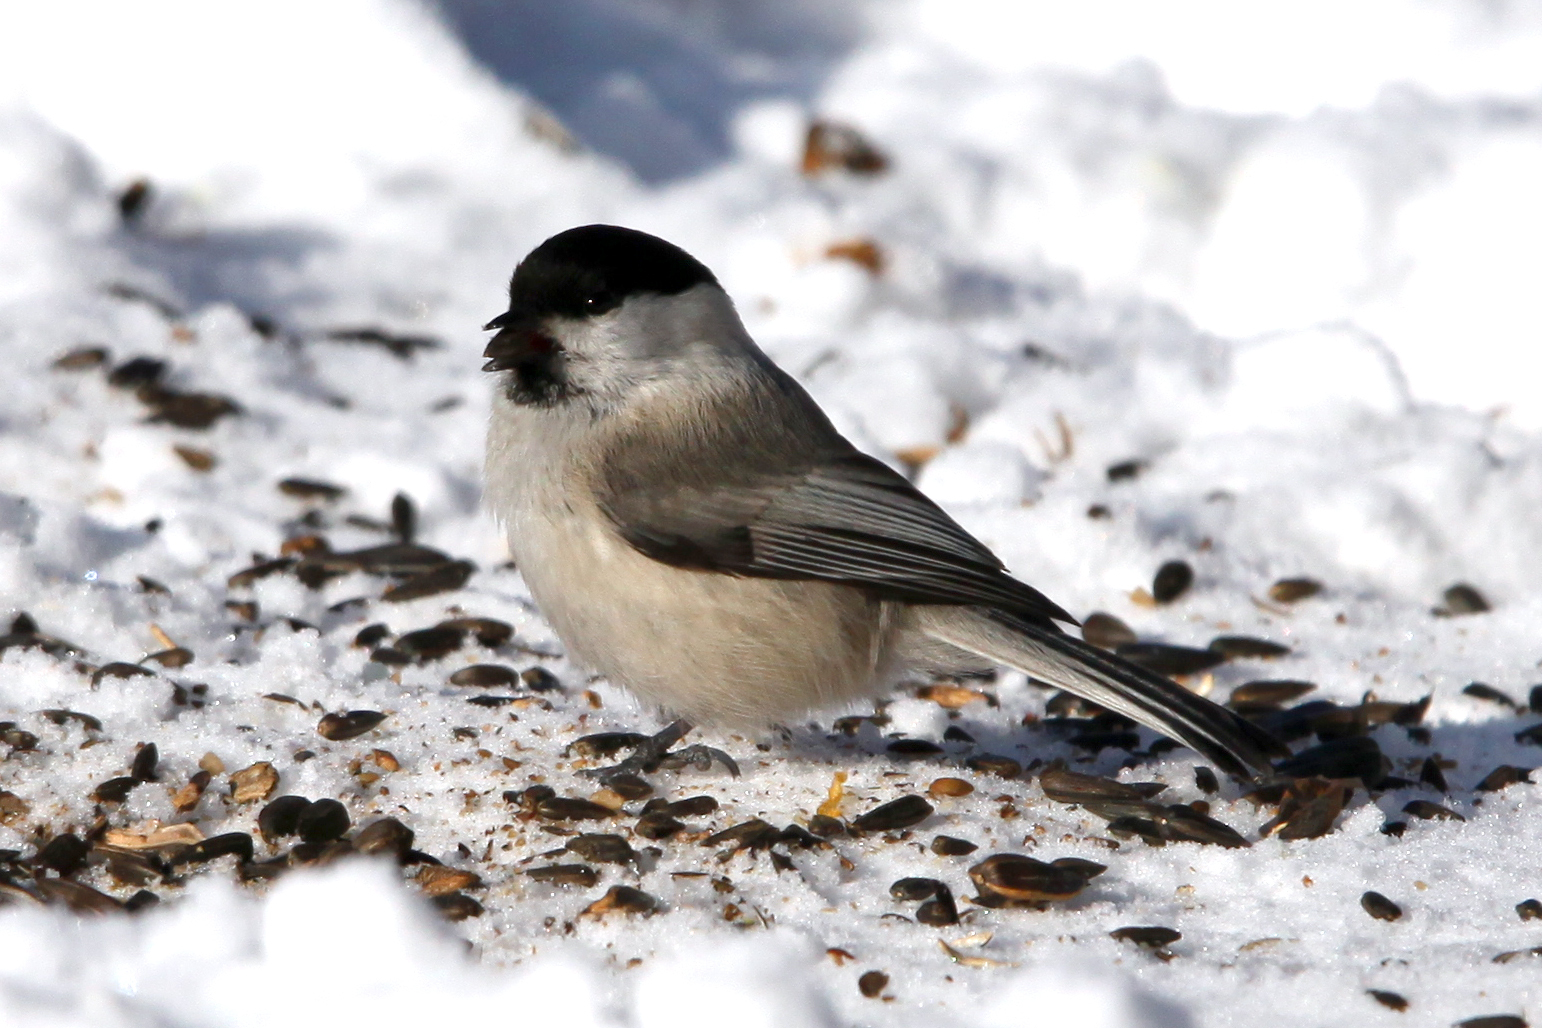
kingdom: Animalia
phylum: Chordata
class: Aves
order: Passeriformes
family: Paridae
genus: Poecile
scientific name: Poecile montanus
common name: Willow tit
